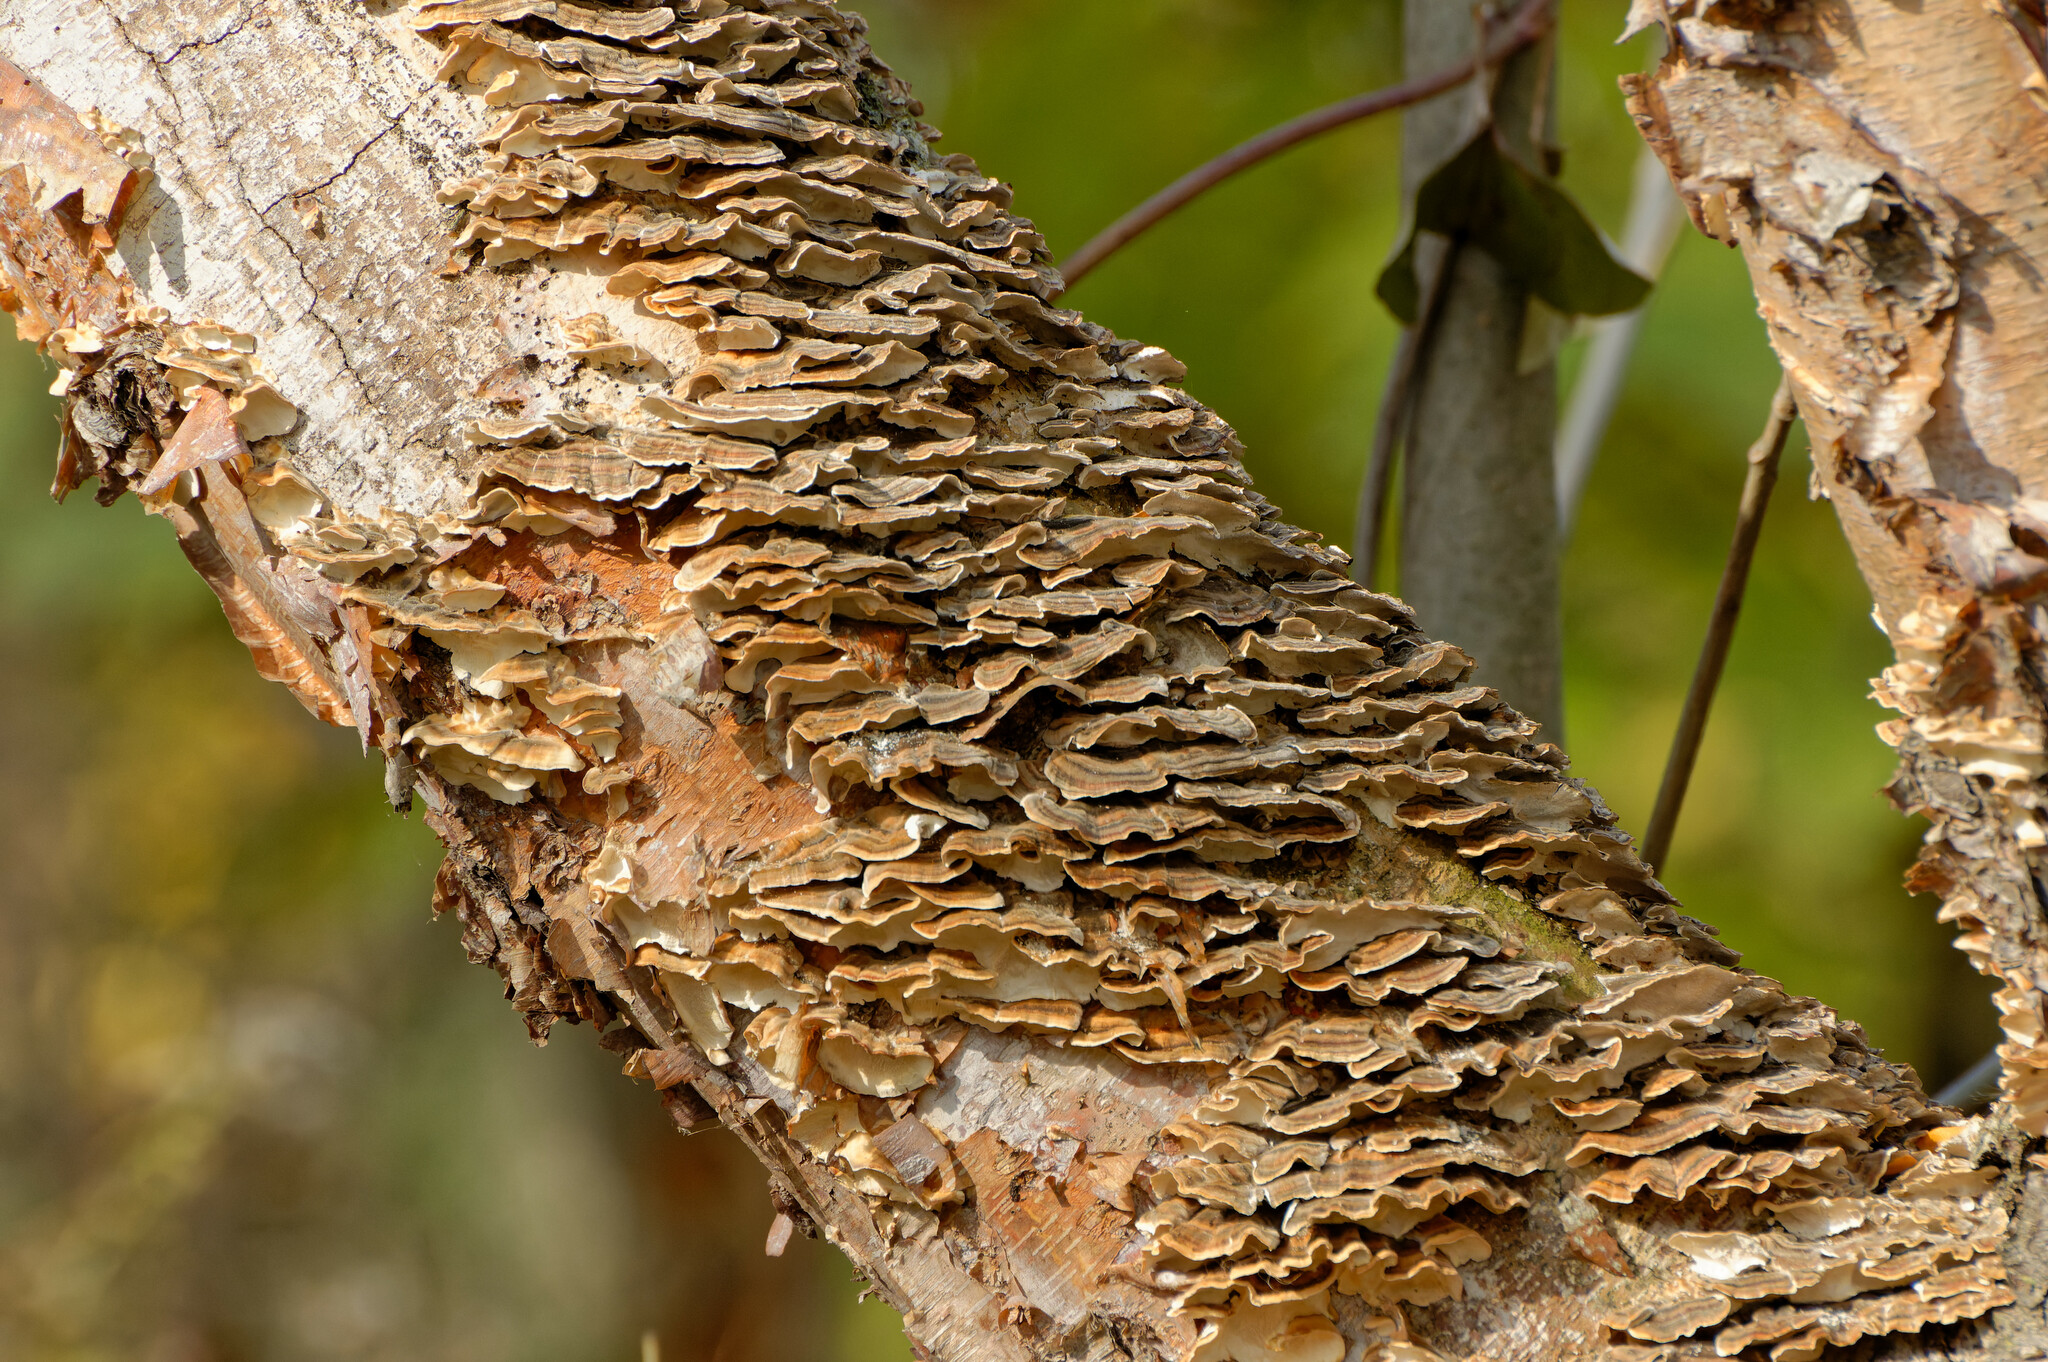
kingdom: Fungi
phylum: Basidiomycota
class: Agaricomycetes
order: Polyporales
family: Polyporaceae
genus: Trametes
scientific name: Trametes versicolor
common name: Turkeytail
